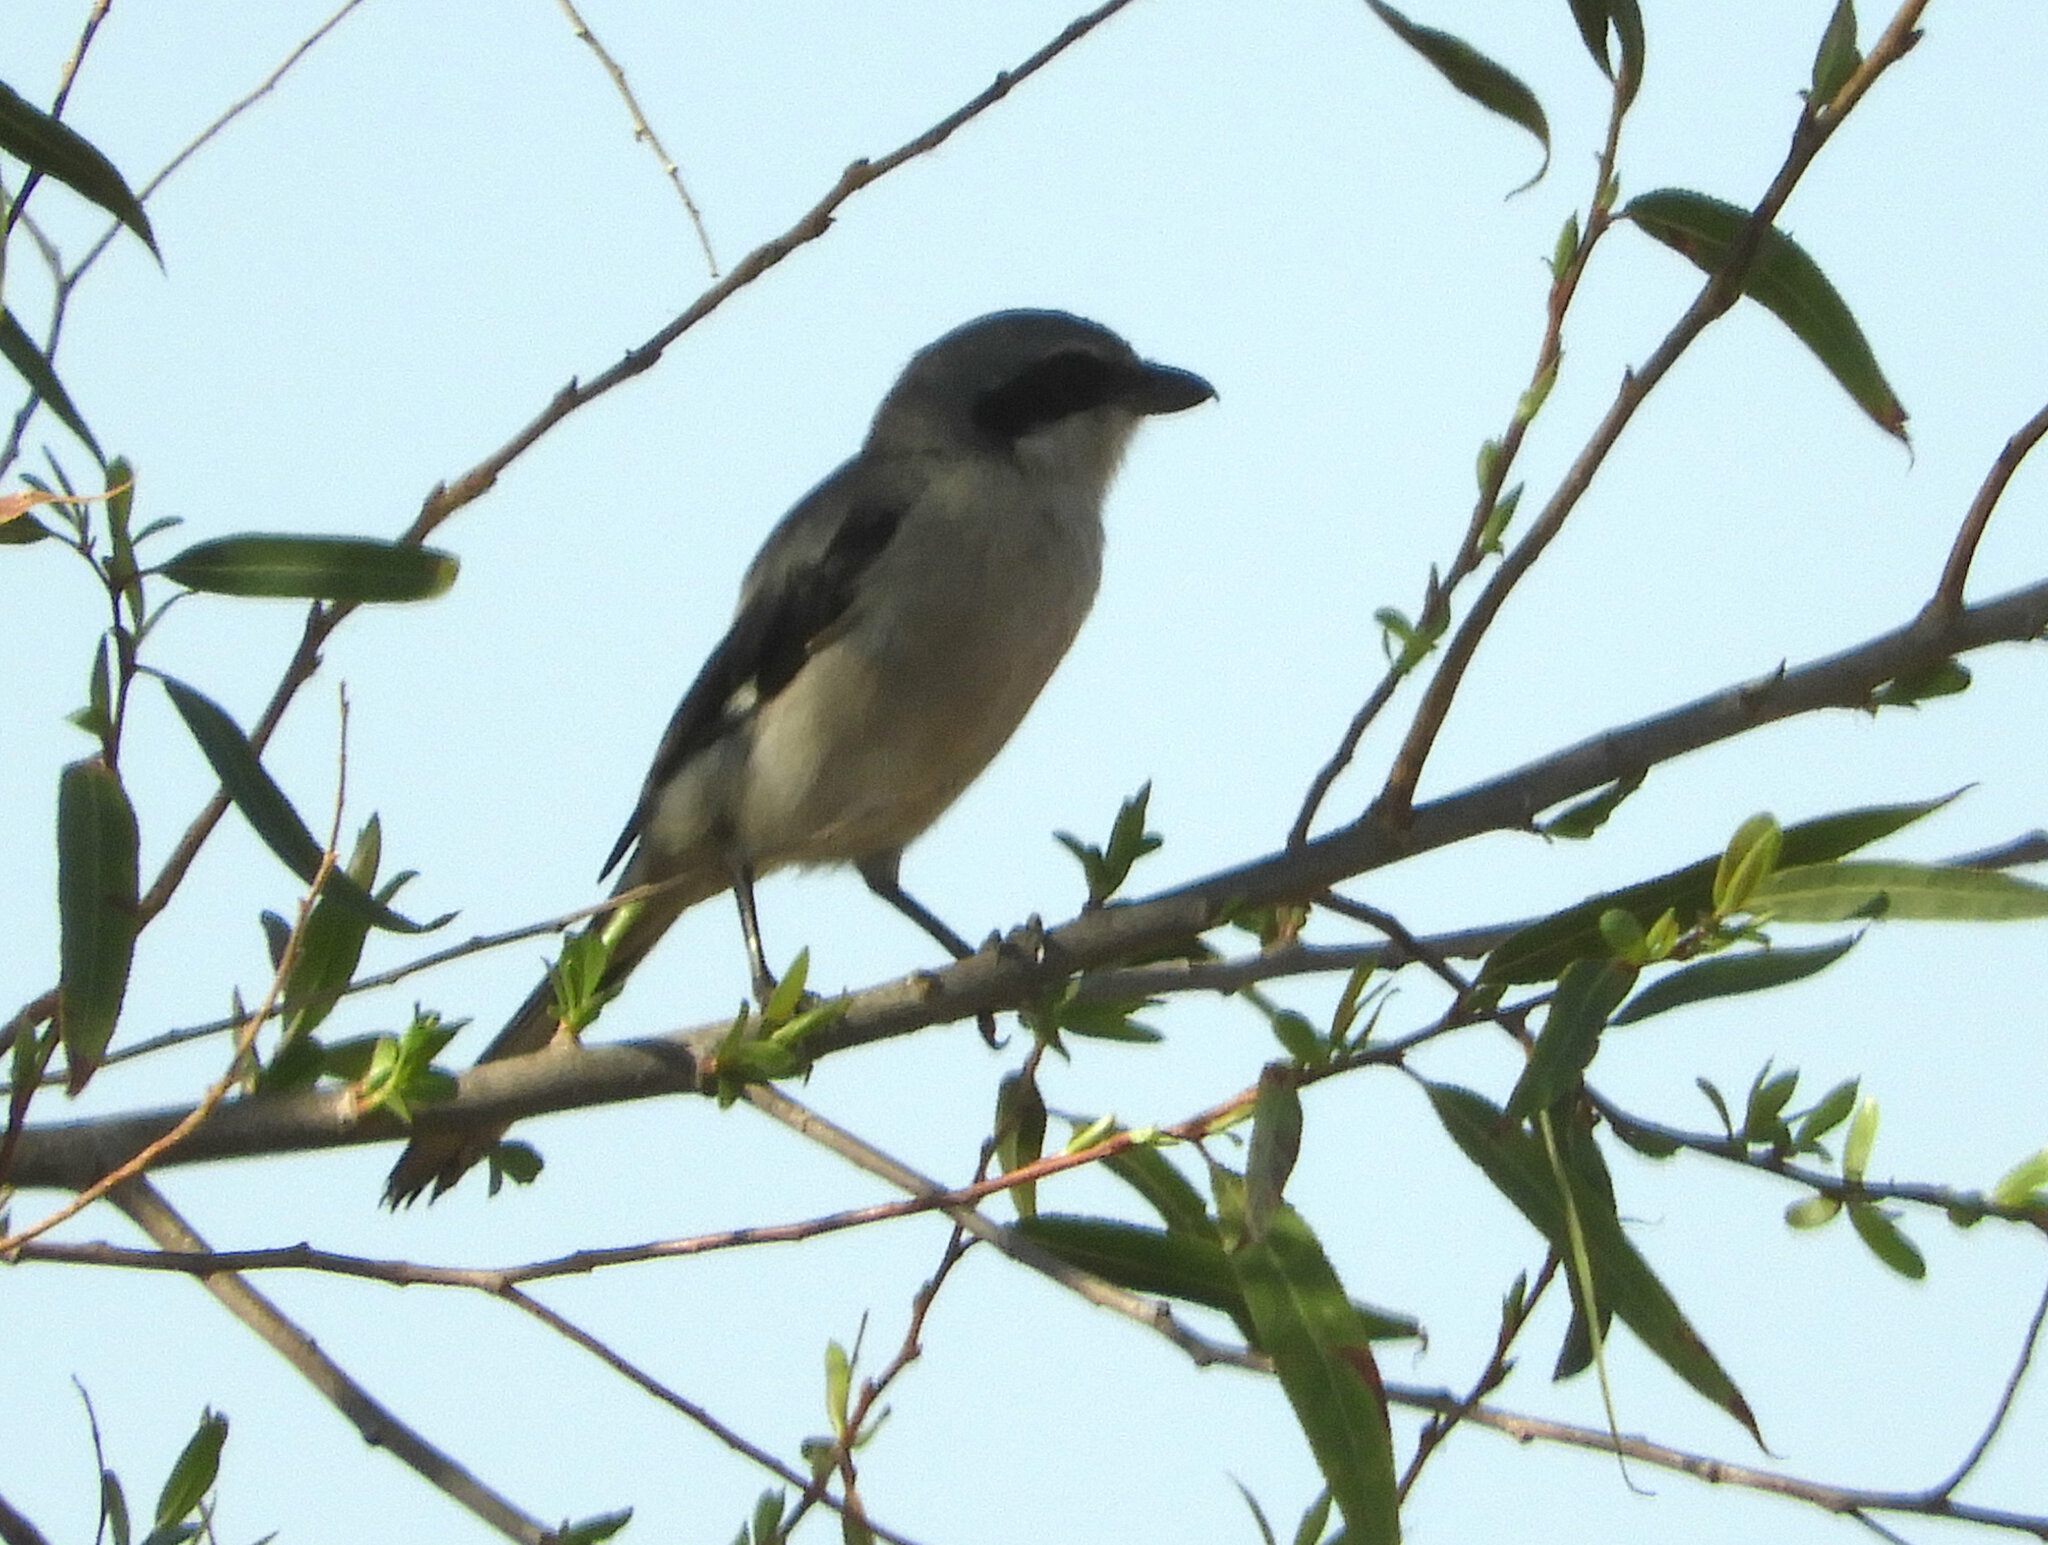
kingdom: Animalia
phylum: Chordata
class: Aves
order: Passeriformes
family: Laniidae
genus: Lanius
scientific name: Lanius ludovicianus
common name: Loggerhead shrike
